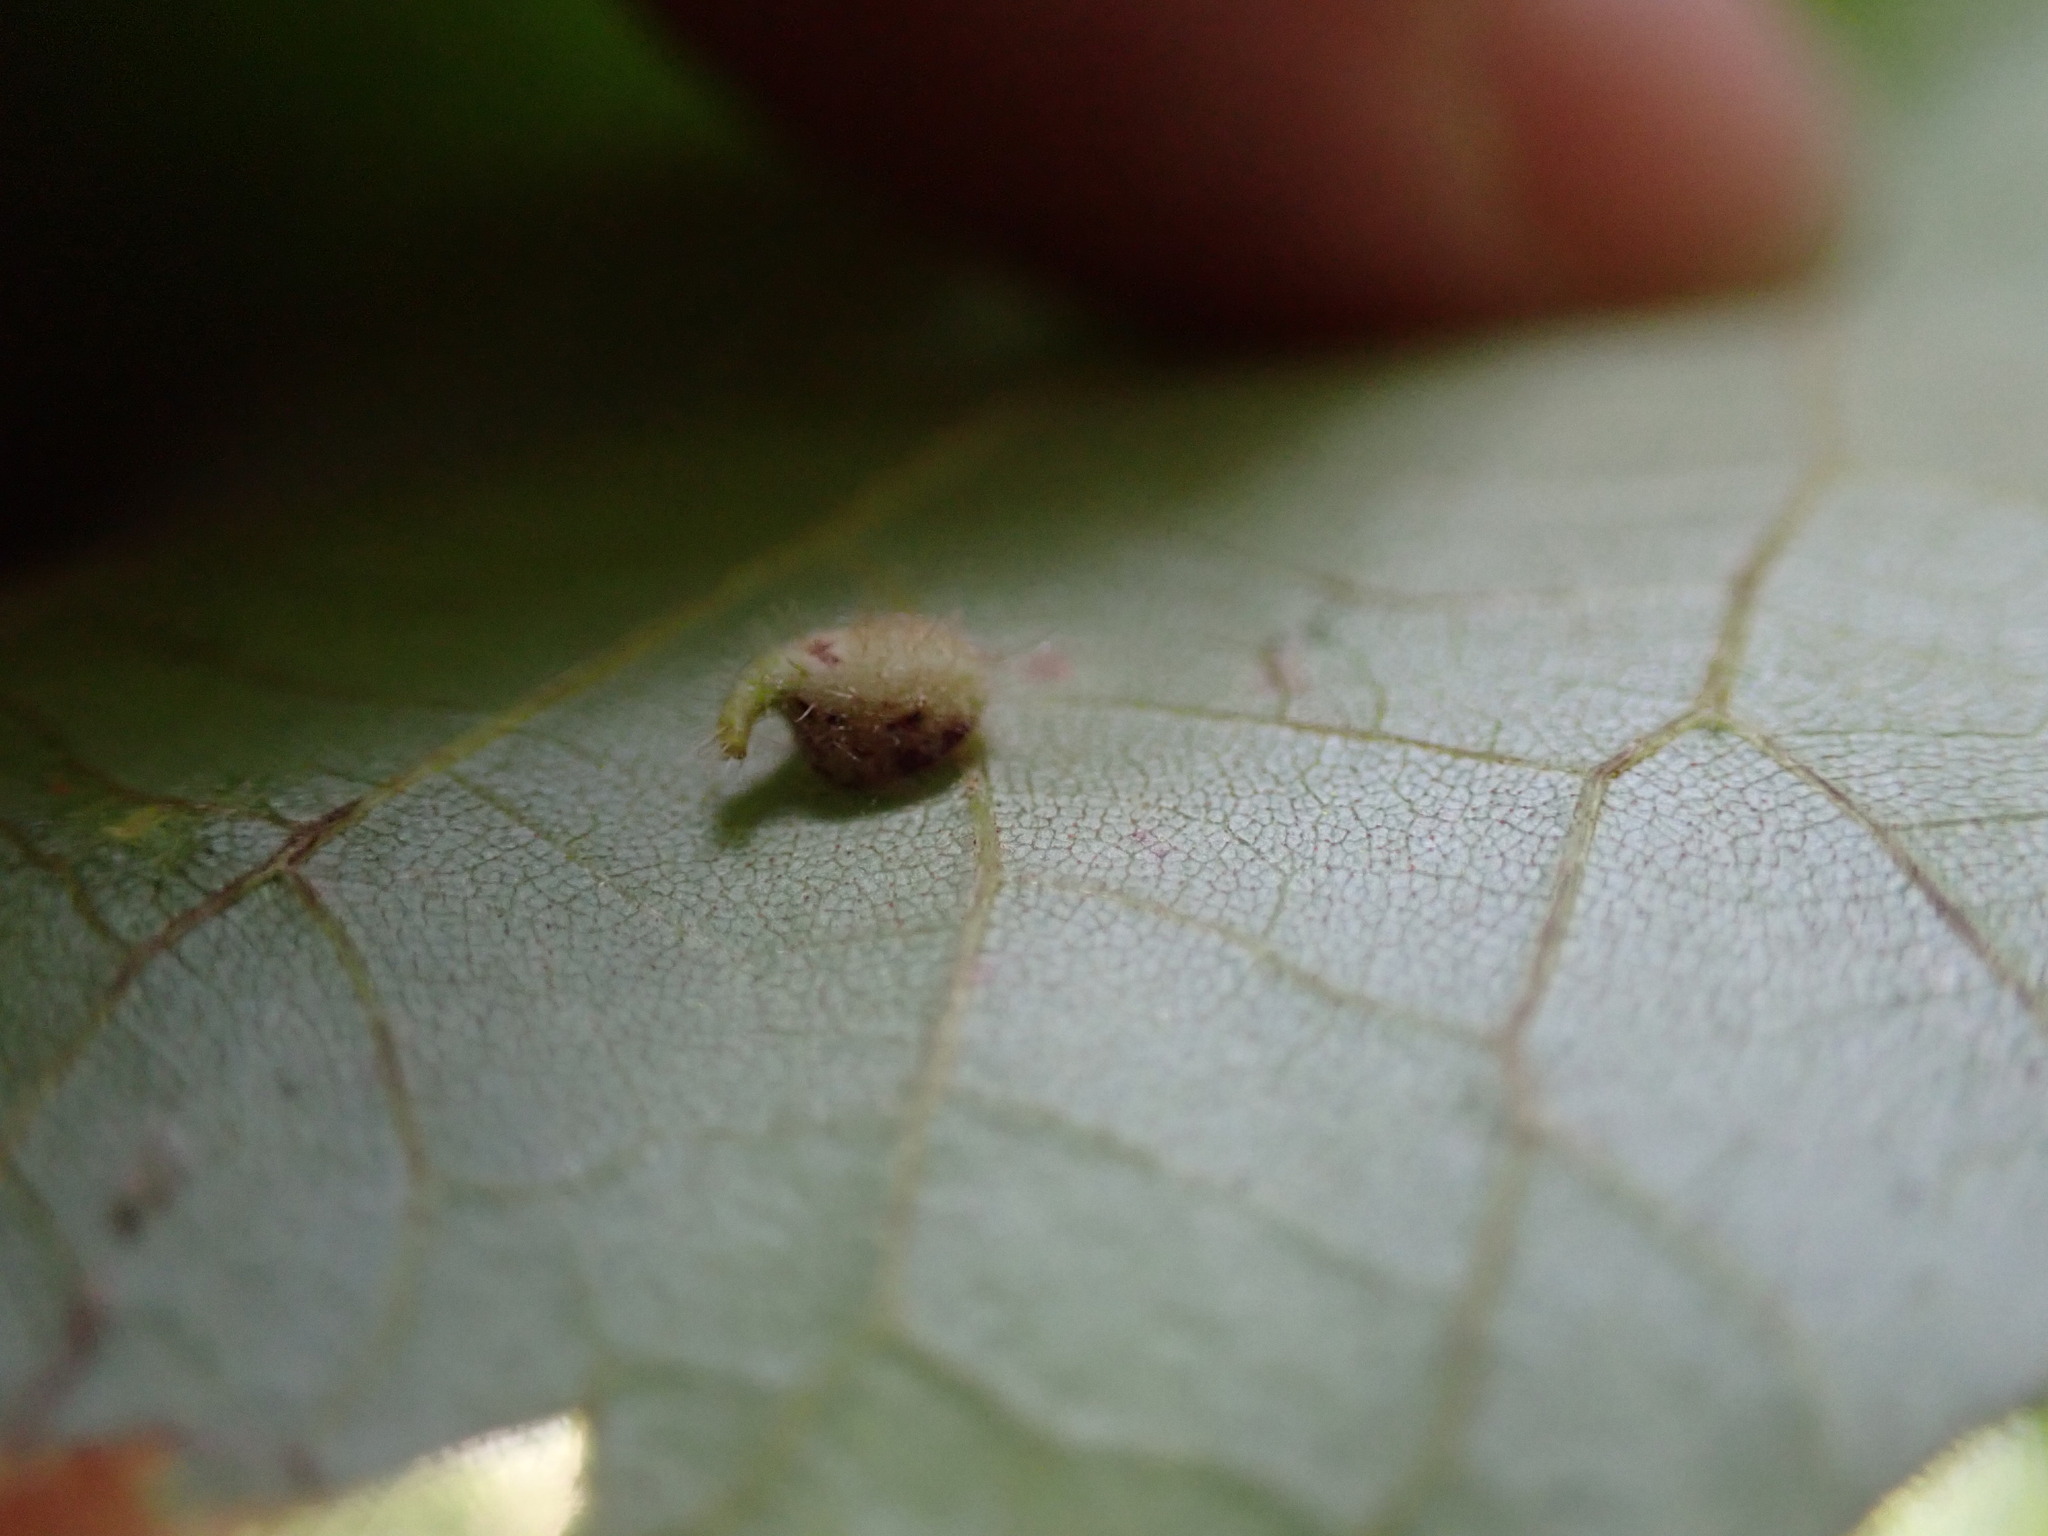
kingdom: Animalia
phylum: Arthropoda
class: Insecta
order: Diptera
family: Cecidomyiidae
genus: Caryomyia
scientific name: Caryomyia inclinata
